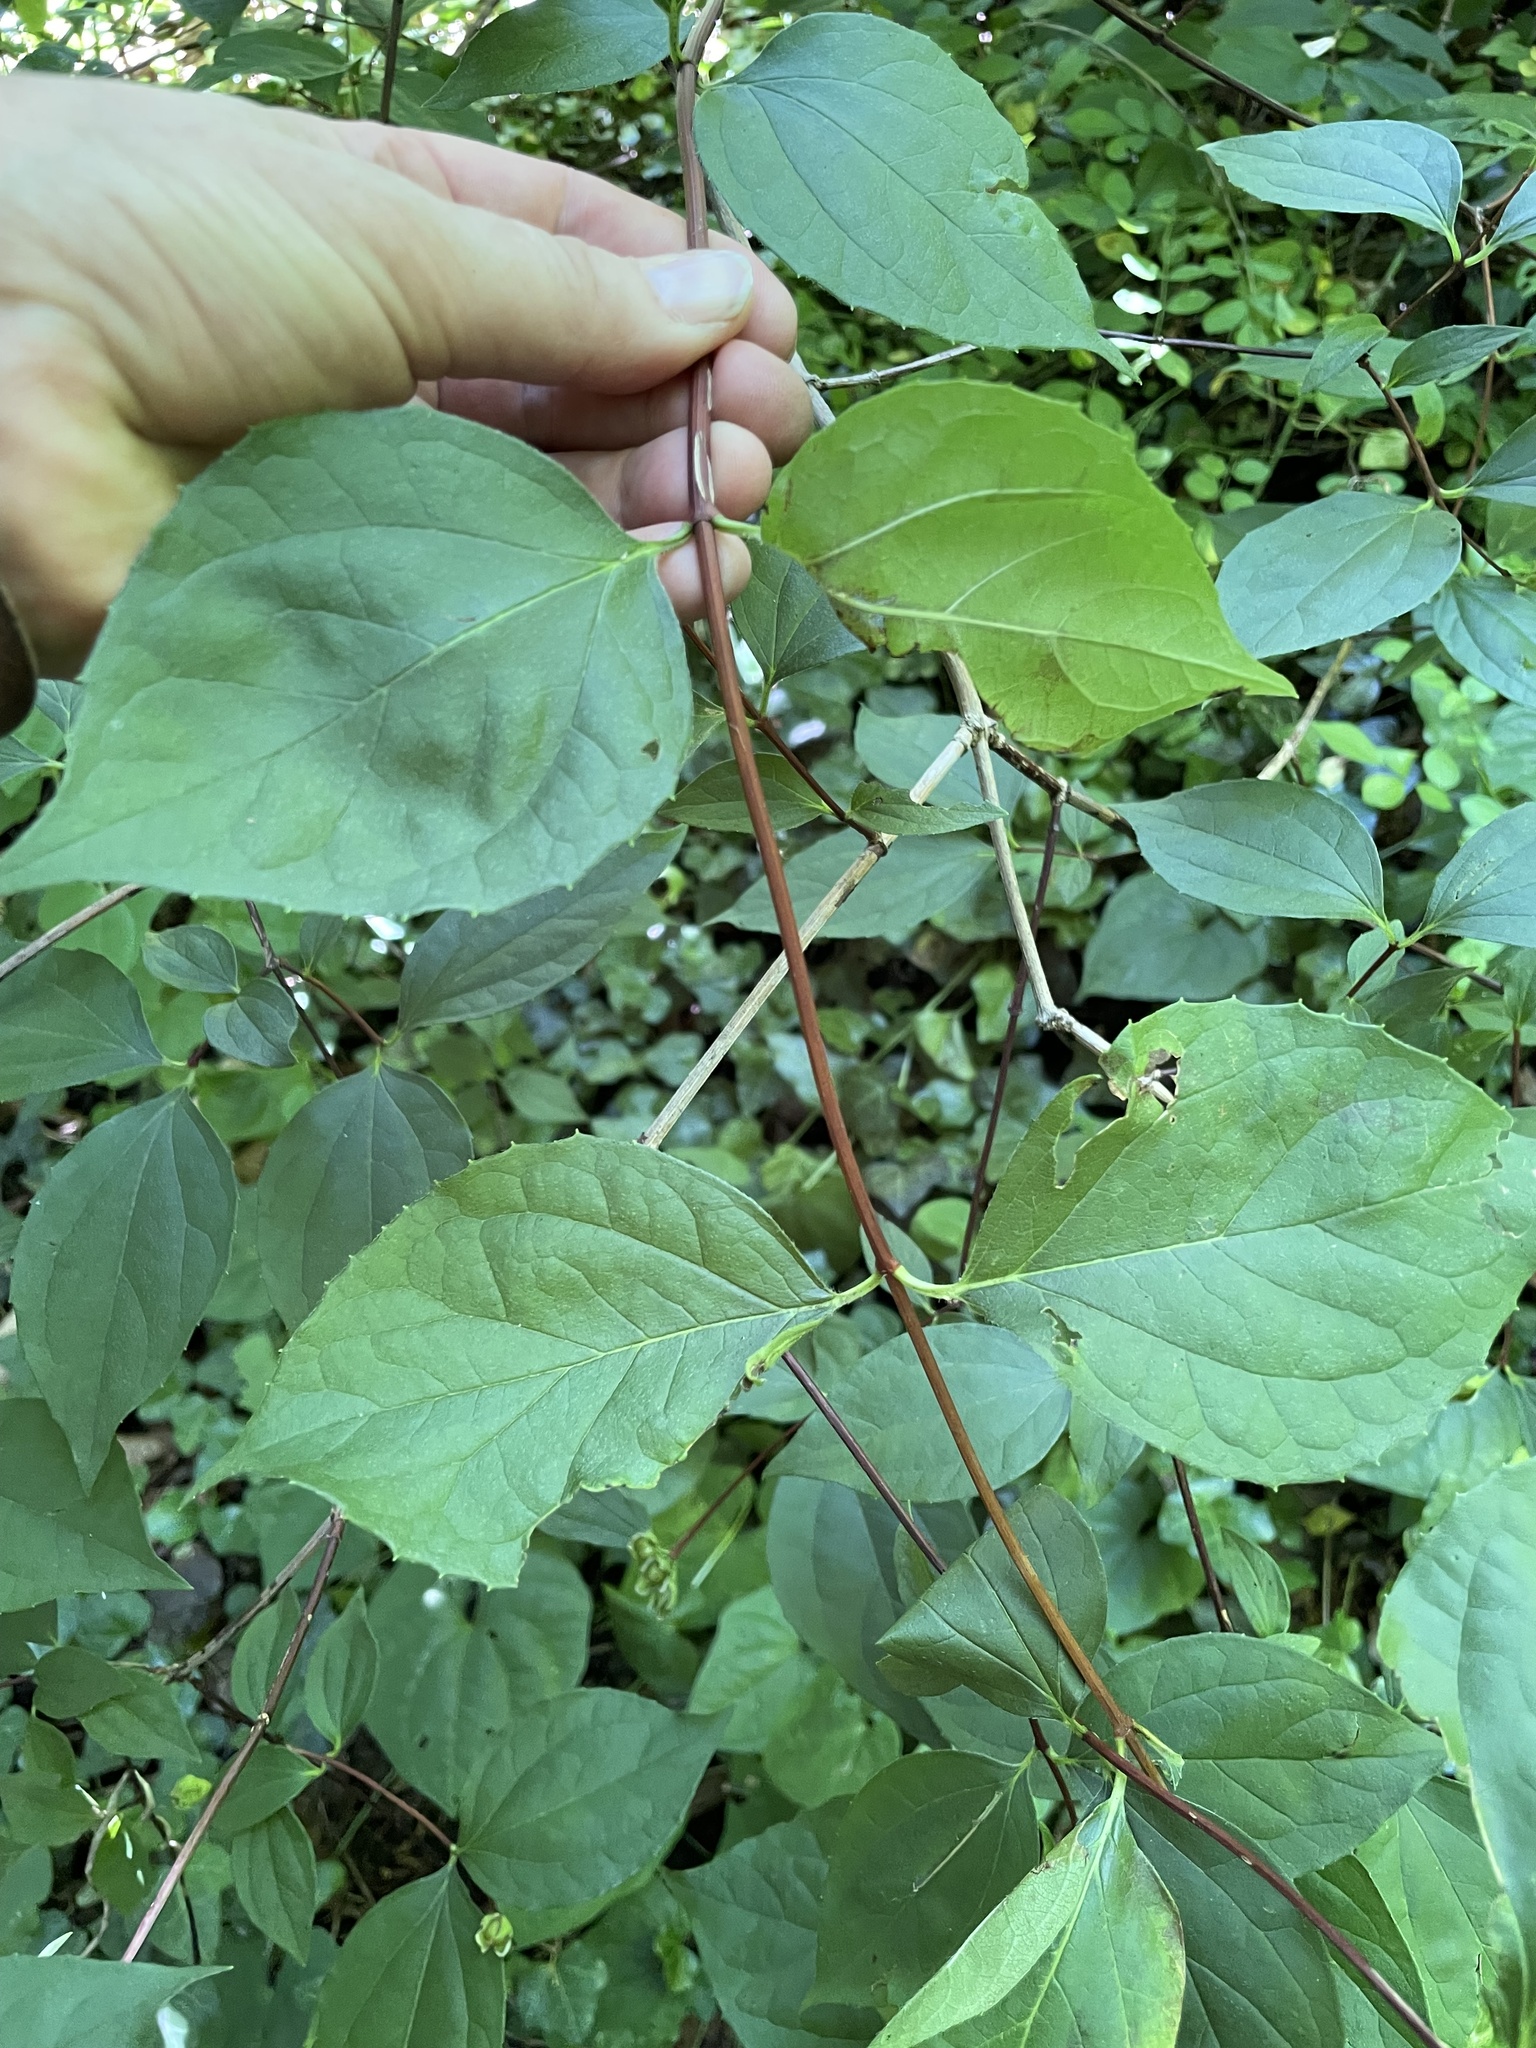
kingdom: Plantae
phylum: Tracheophyta
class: Magnoliopsida
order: Cornales
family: Hydrangeaceae
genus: Philadelphus
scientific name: Philadelphus coronarius
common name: Mock orange
